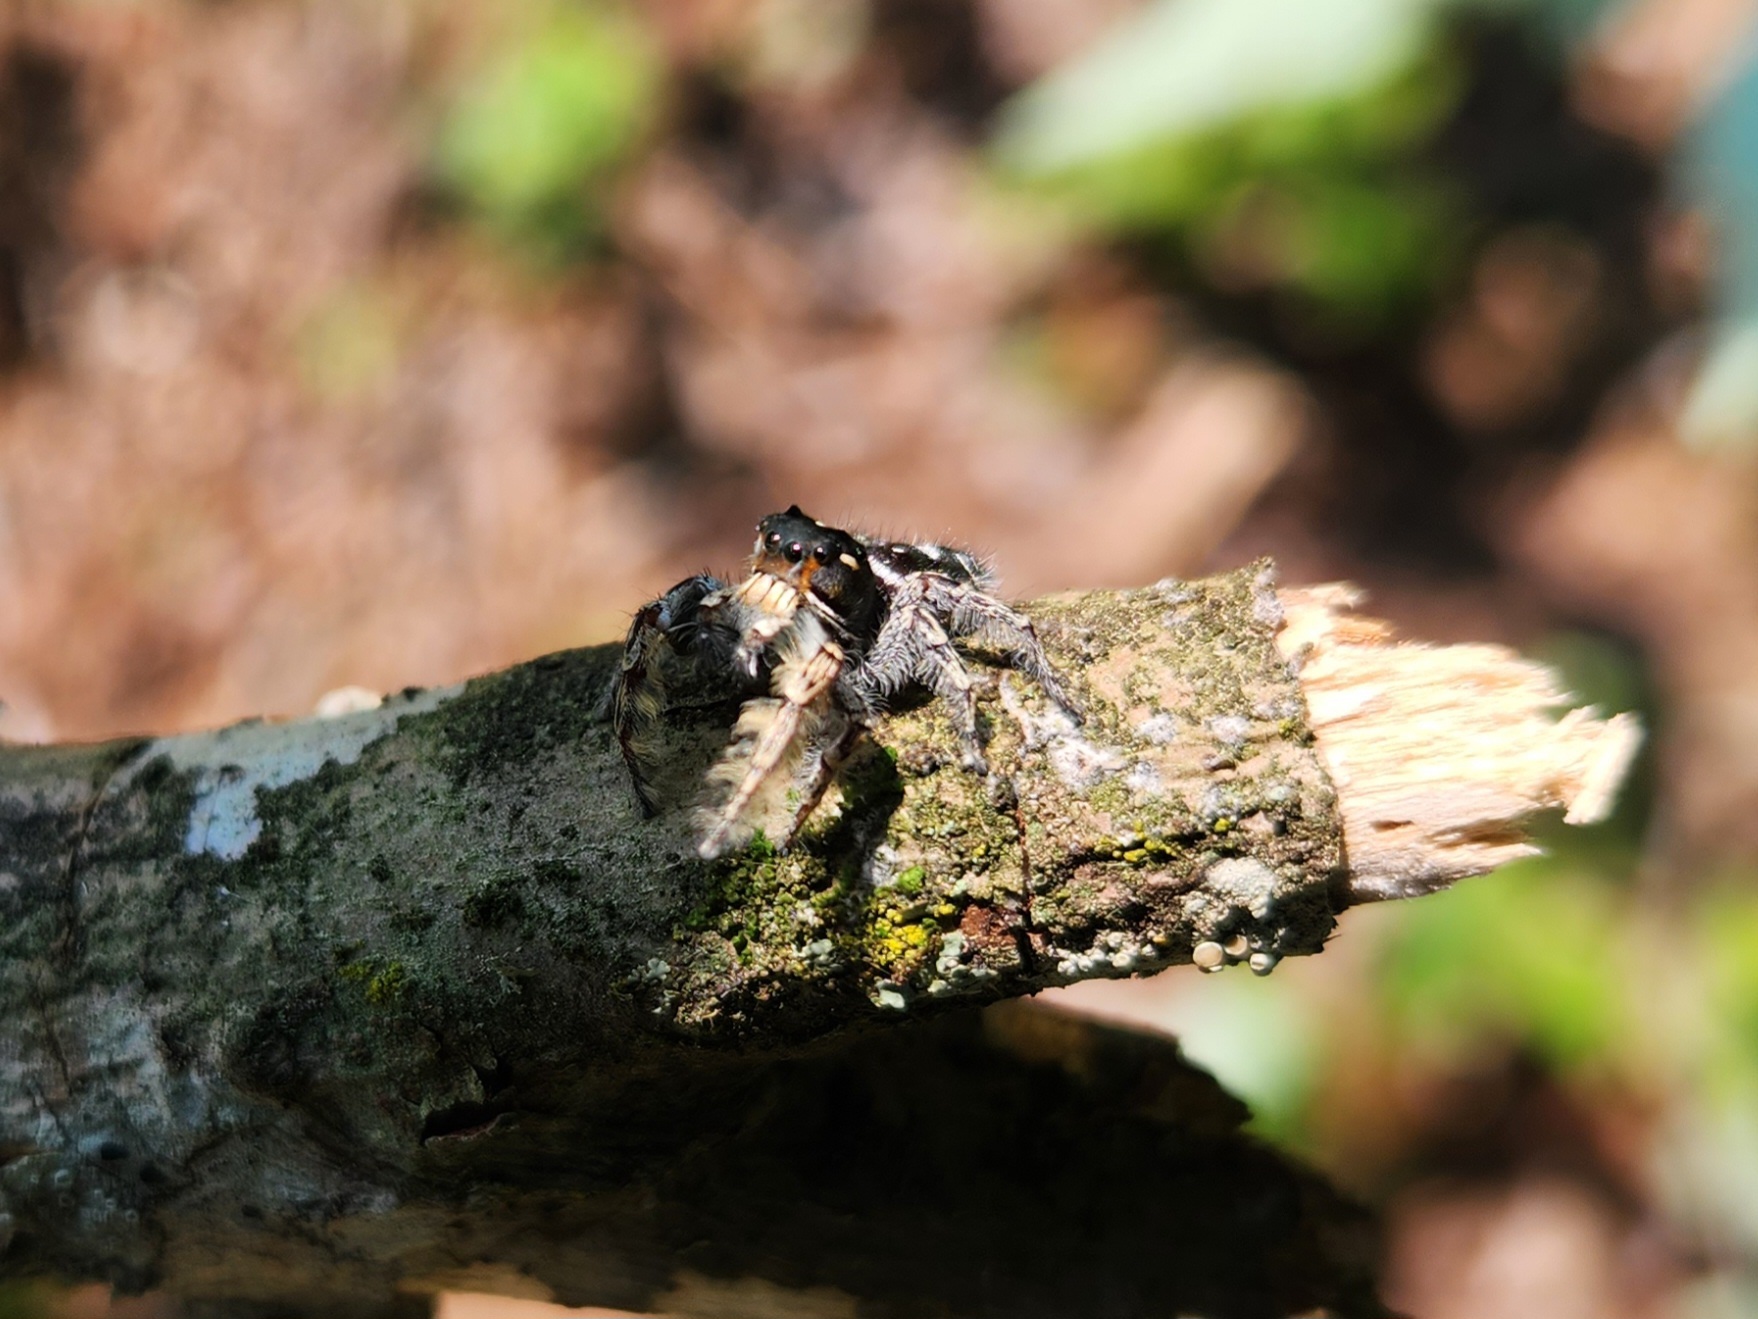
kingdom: Animalia
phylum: Arthropoda
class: Arachnida
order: Araneae
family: Salticidae
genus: Phidippus
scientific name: Phidippus putnami
